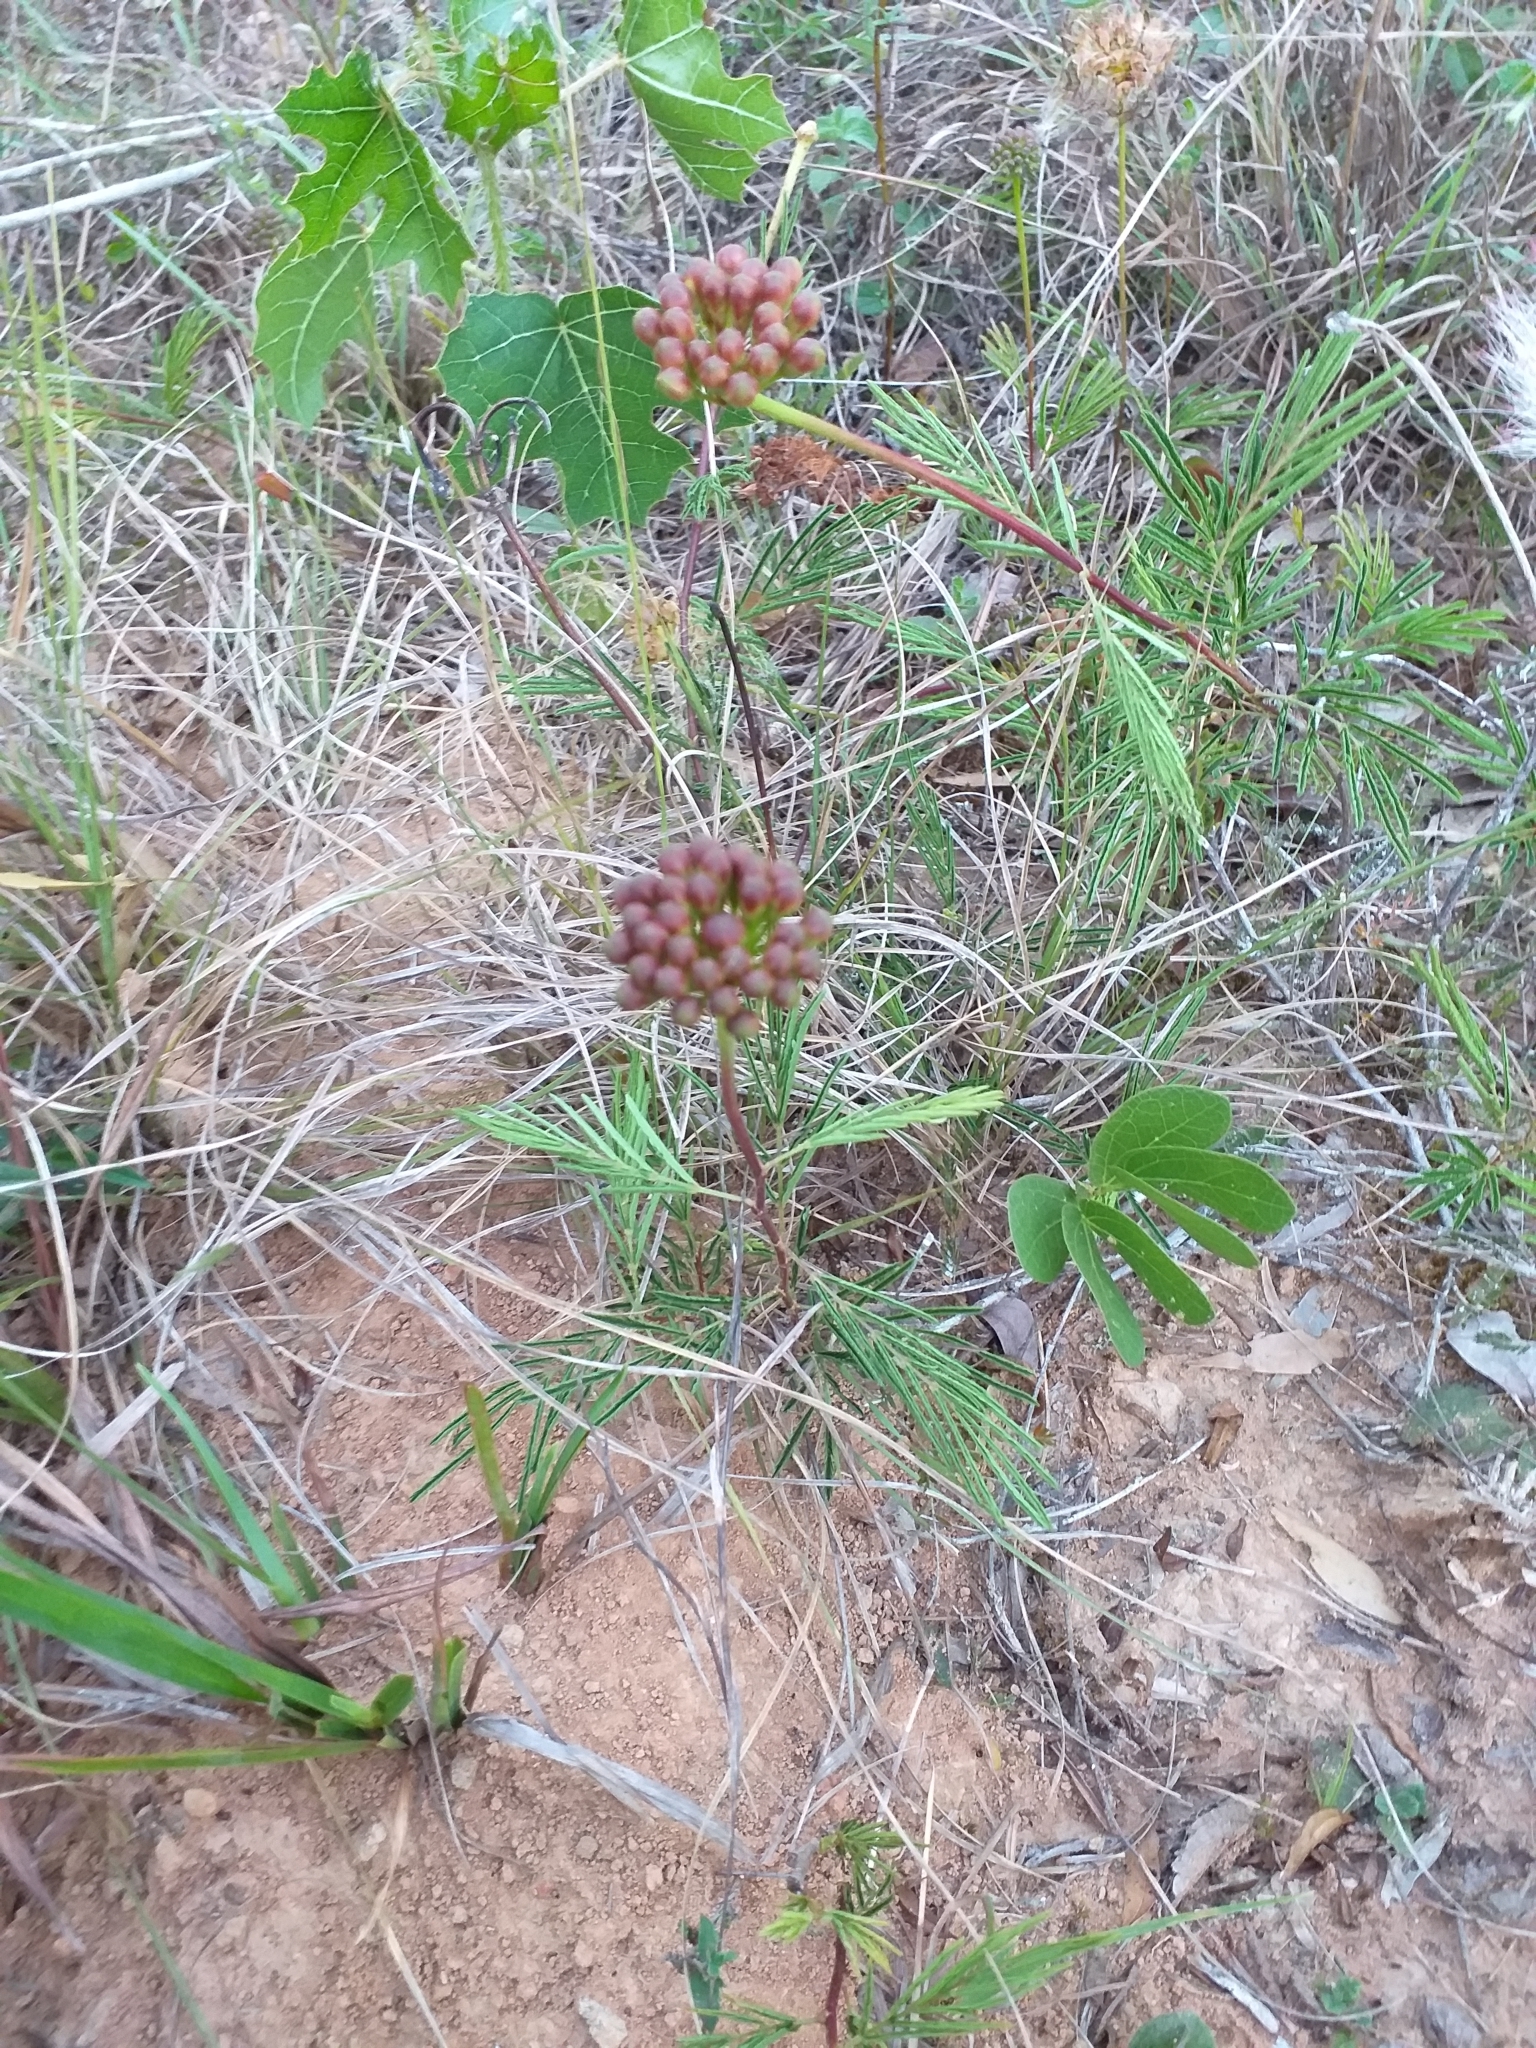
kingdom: Plantae
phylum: Tracheophyta
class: Magnoliopsida
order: Fabales
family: Fabaceae
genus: Calliandra
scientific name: Calliandra brevicaulis
